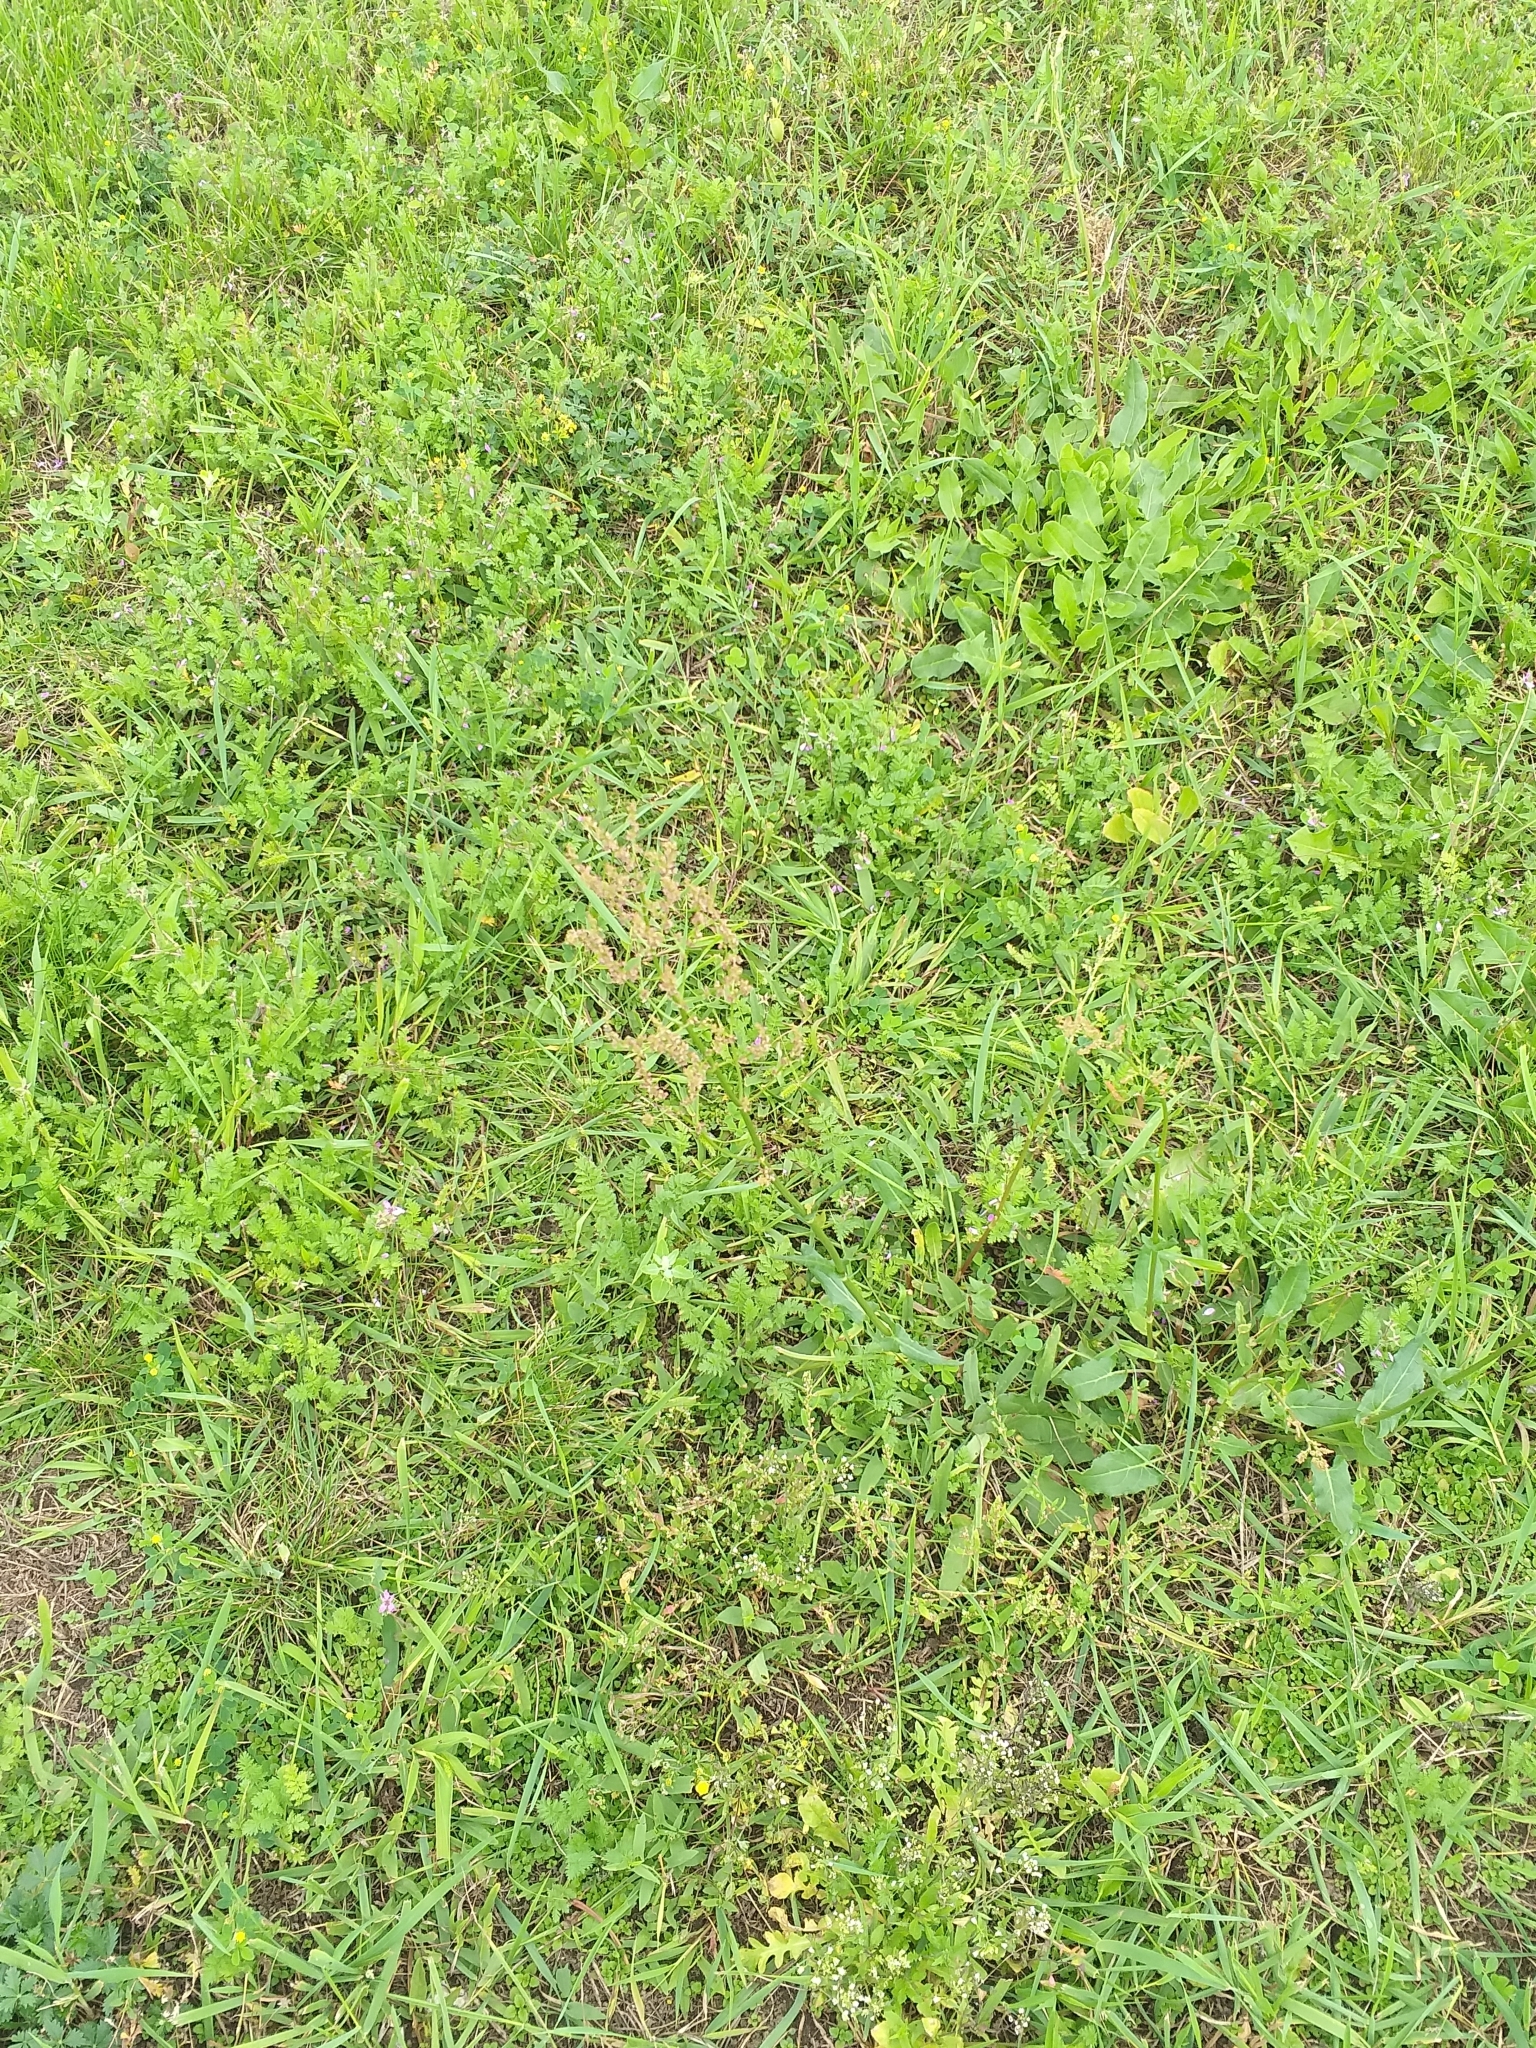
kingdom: Plantae
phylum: Tracheophyta
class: Magnoliopsida
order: Caryophyllales
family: Polygonaceae
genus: Rumex
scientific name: Rumex acetosa
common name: Garden sorrel
